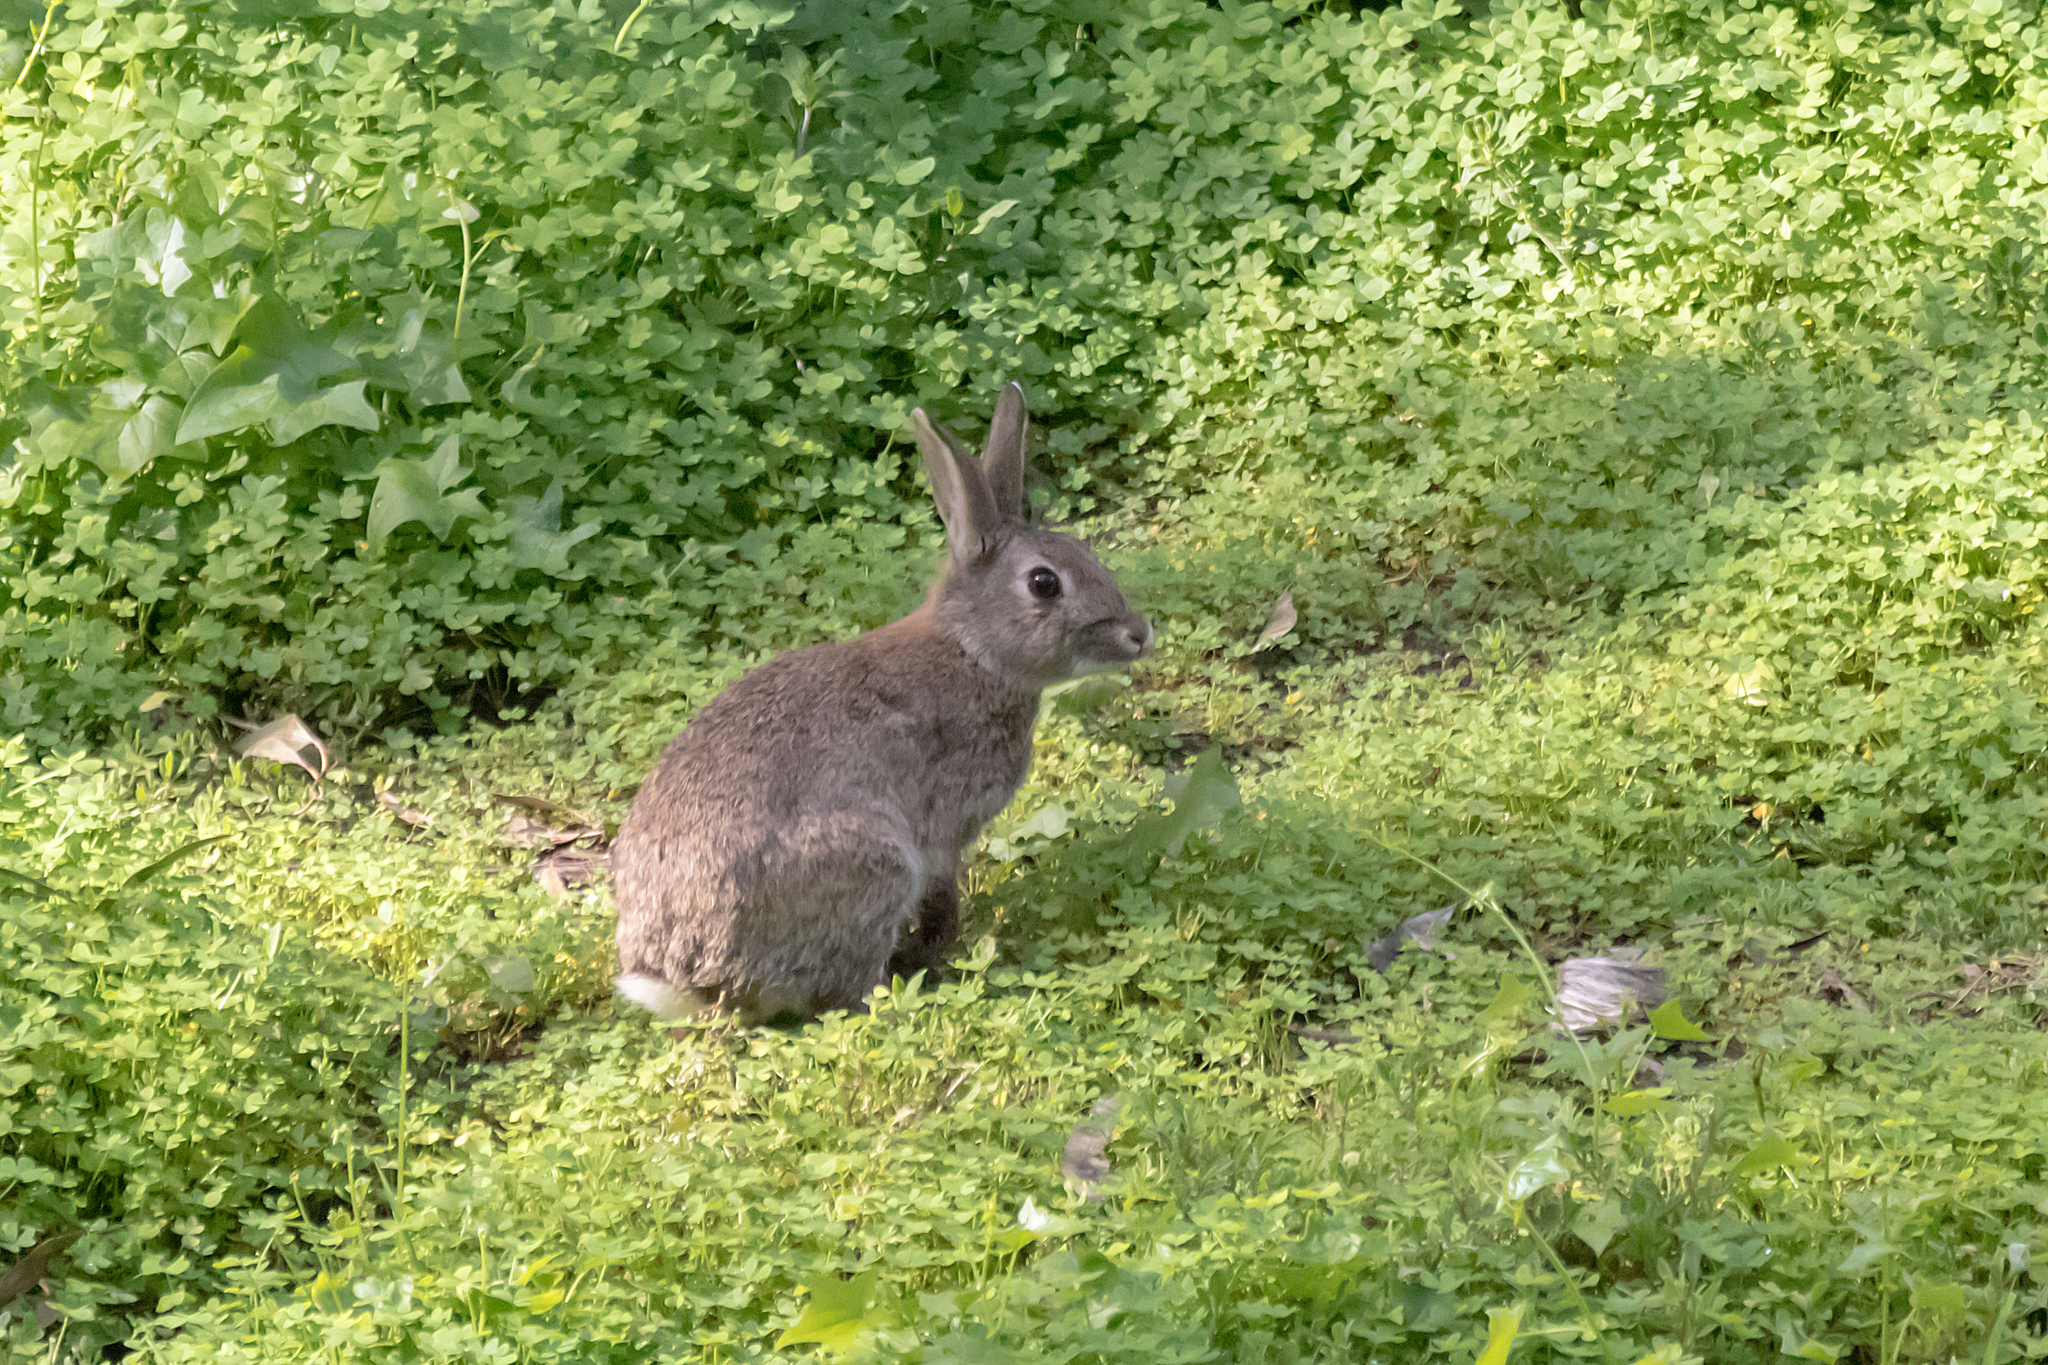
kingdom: Animalia
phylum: Chordata
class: Mammalia
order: Lagomorpha
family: Leporidae
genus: Oryctolagus
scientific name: Oryctolagus cuniculus
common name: European rabbit
